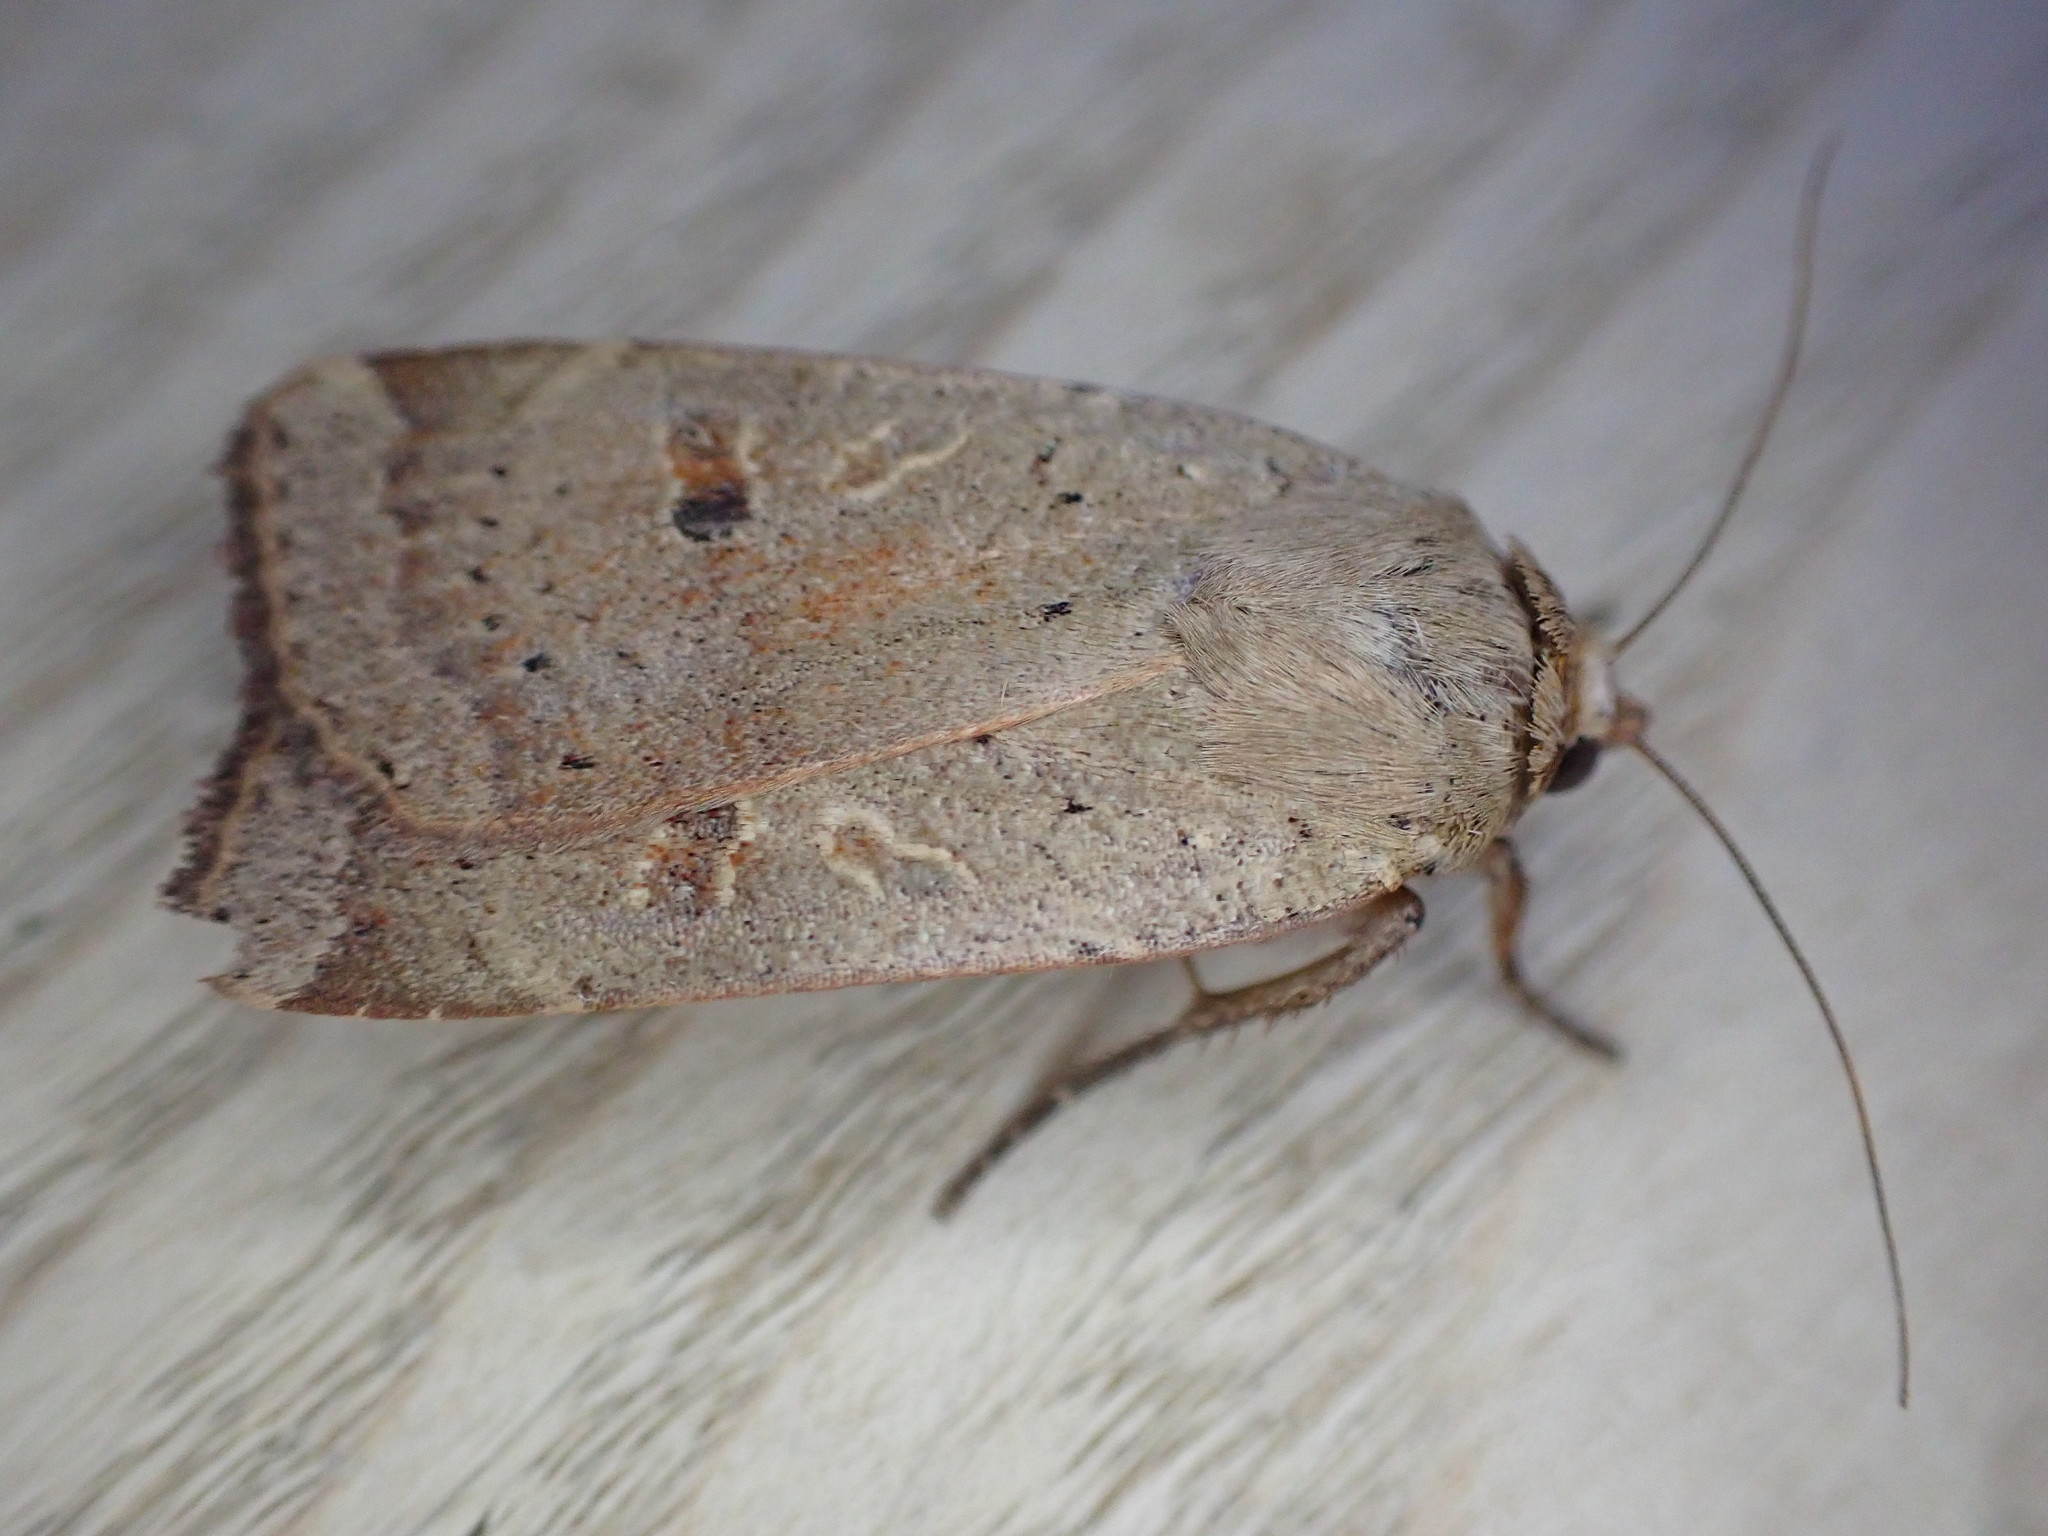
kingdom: Animalia
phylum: Arthropoda
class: Insecta
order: Lepidoptera
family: Noctuidae
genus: Noctua
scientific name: Noctua comes
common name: Lesser yellow underwing
